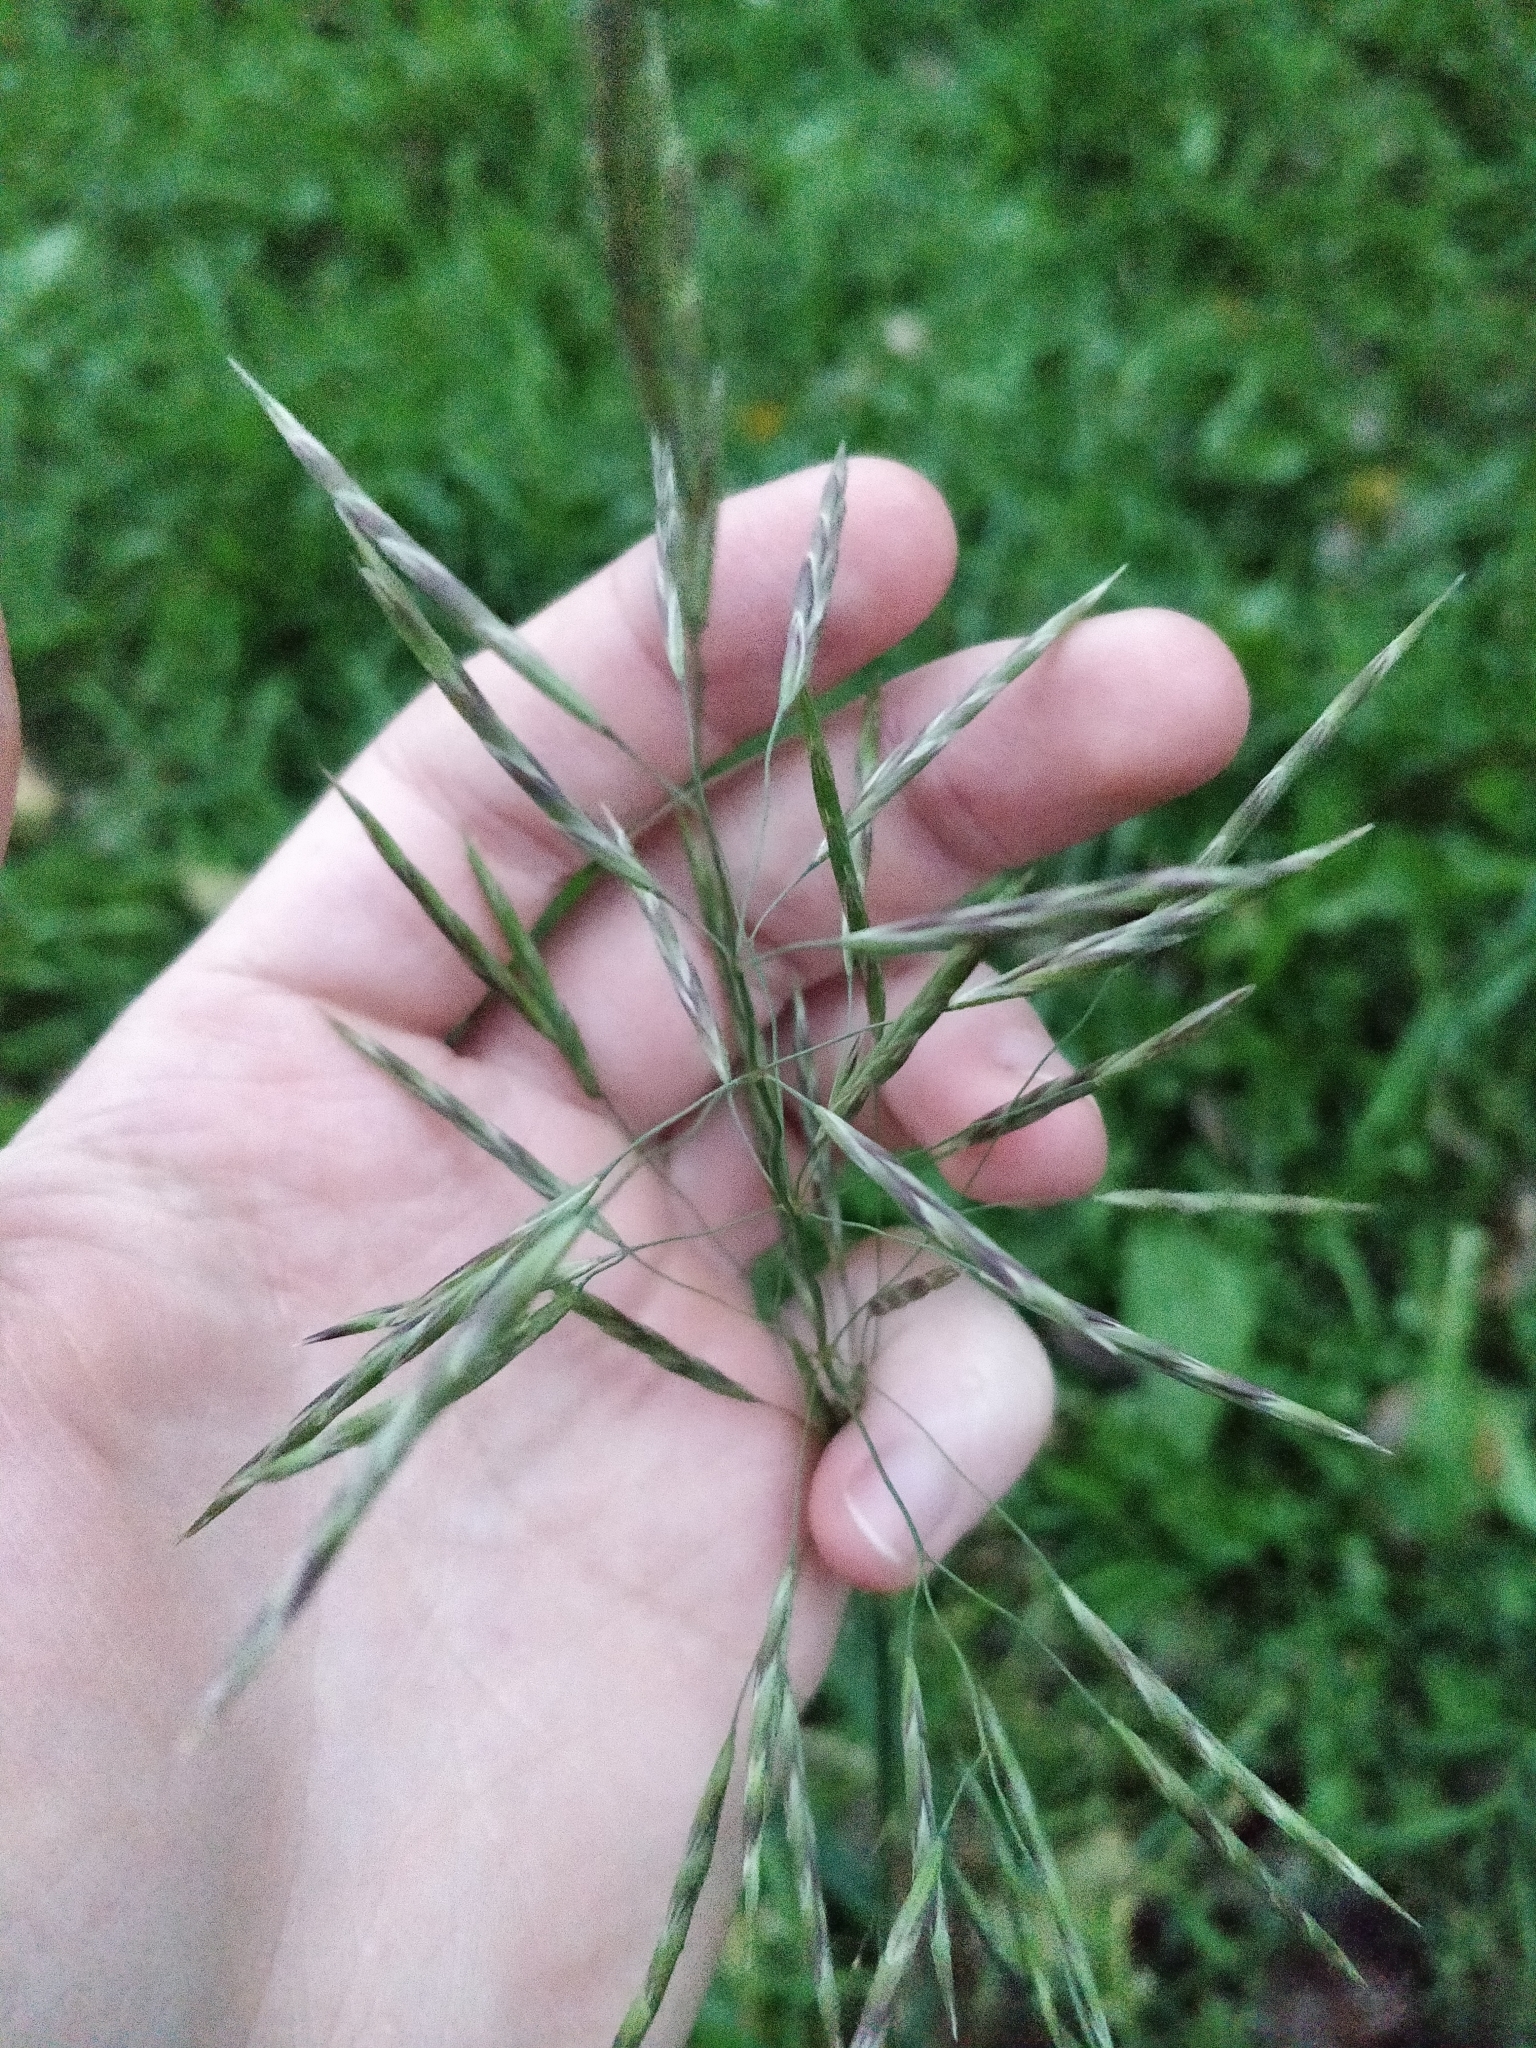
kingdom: Plantae
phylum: Tracheophyta
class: Liliopsida
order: Poales
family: Poaceae
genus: Bromus
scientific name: Bromus inermis
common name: Smooth brome
